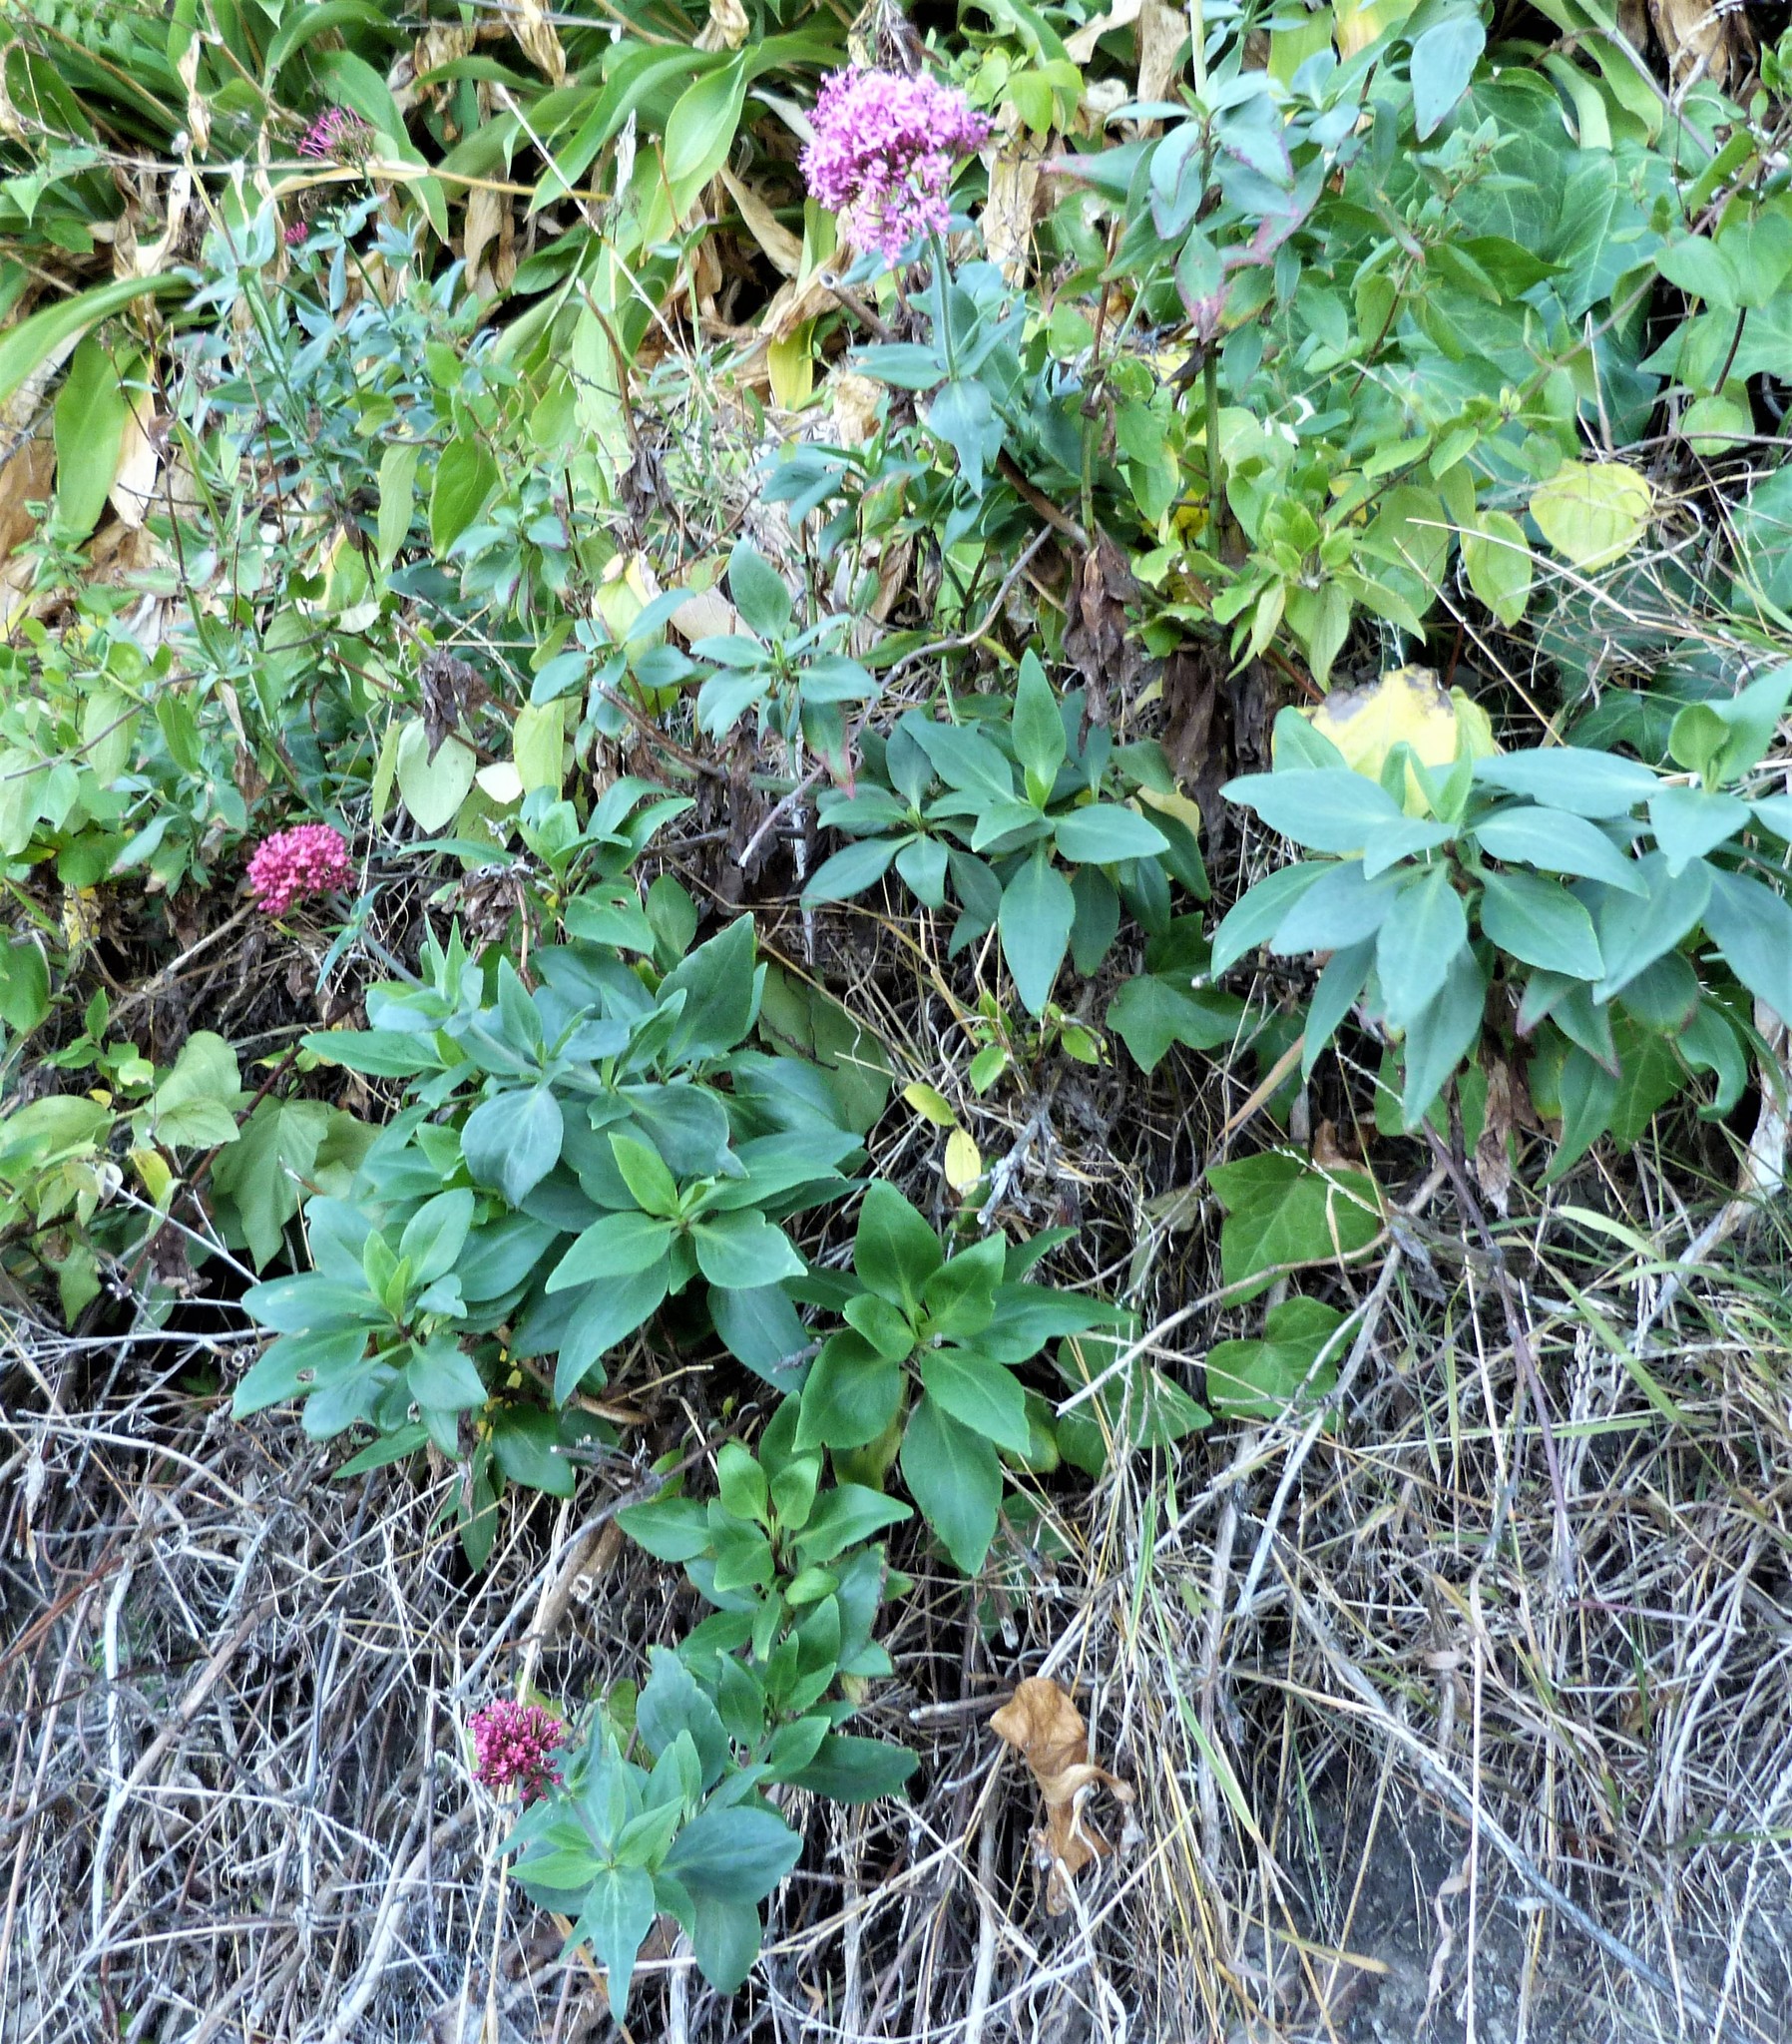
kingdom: Plantae
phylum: Tracheophyta
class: Magnoliopsida
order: Dipsacales
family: Caprifoliaceae
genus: Centranthus
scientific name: Centranthus ruber
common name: Red valerian
